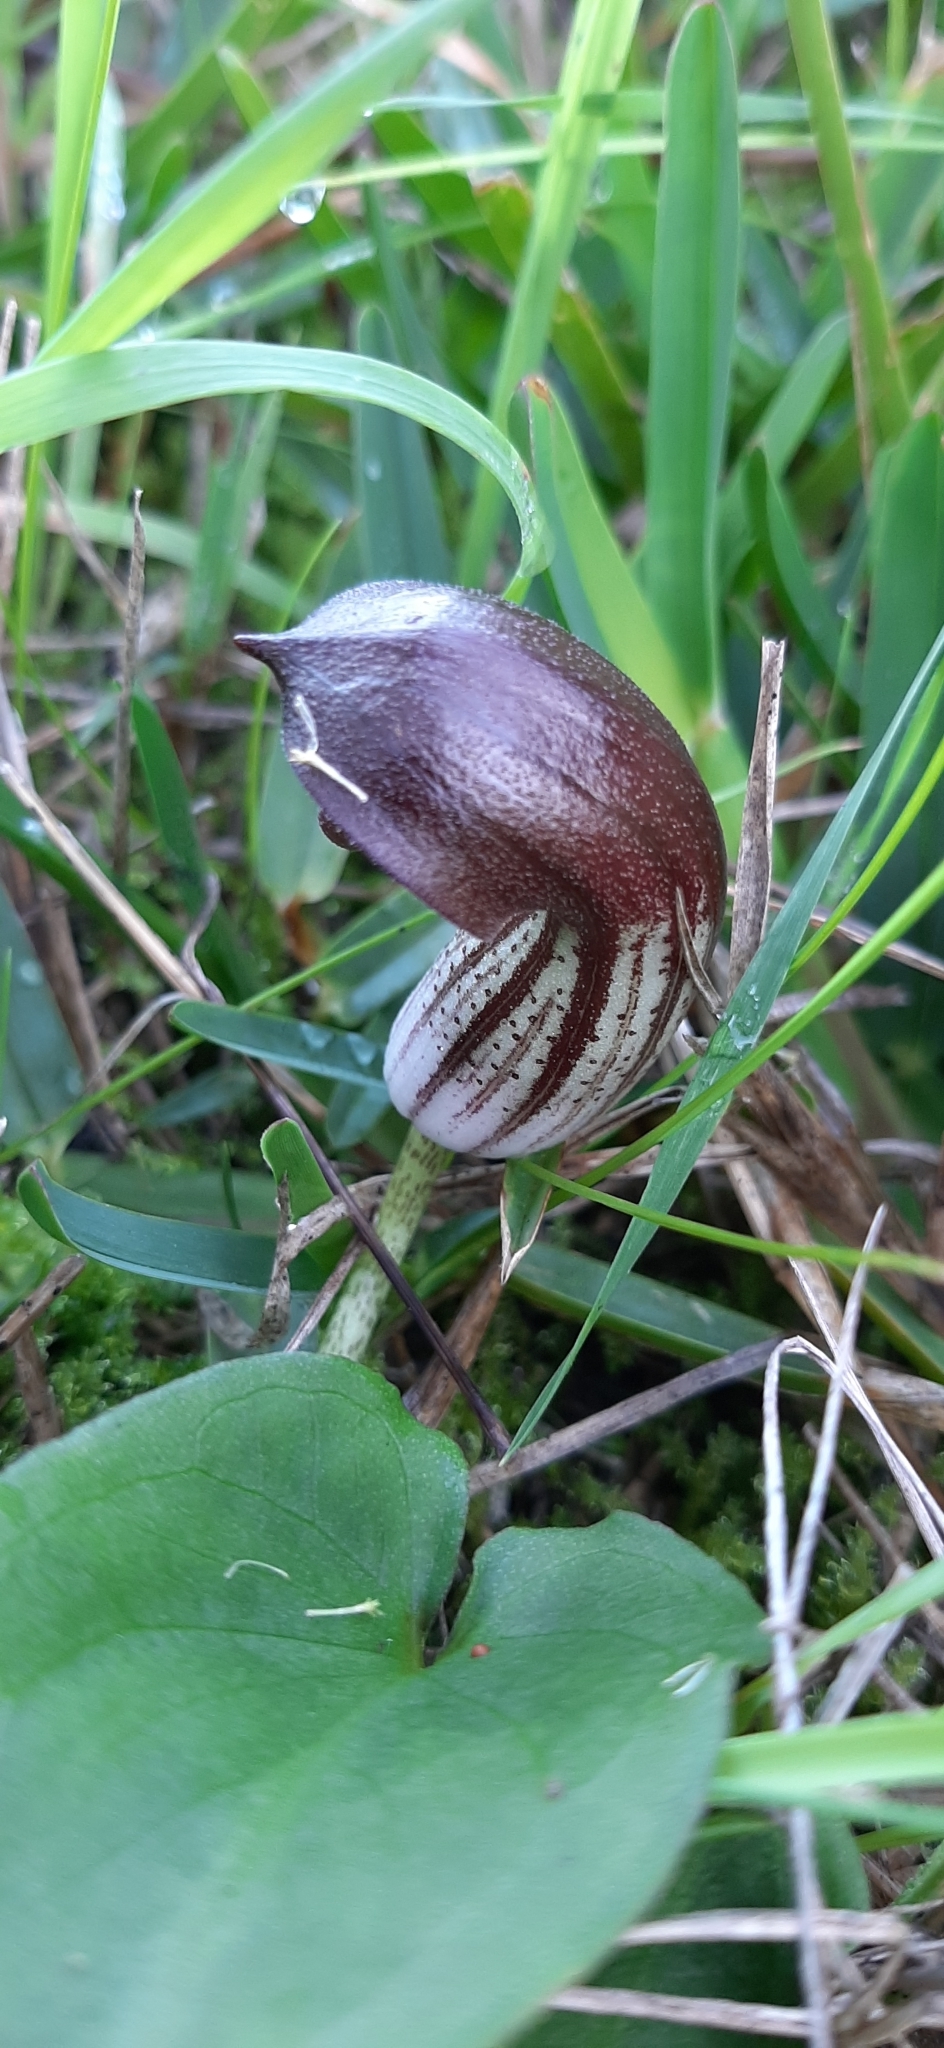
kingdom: Plantae
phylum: Tracheophyta
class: Liliopsida
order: Alismatales
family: Araceae
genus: Arisarum
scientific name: Arisarum simorrhinum
